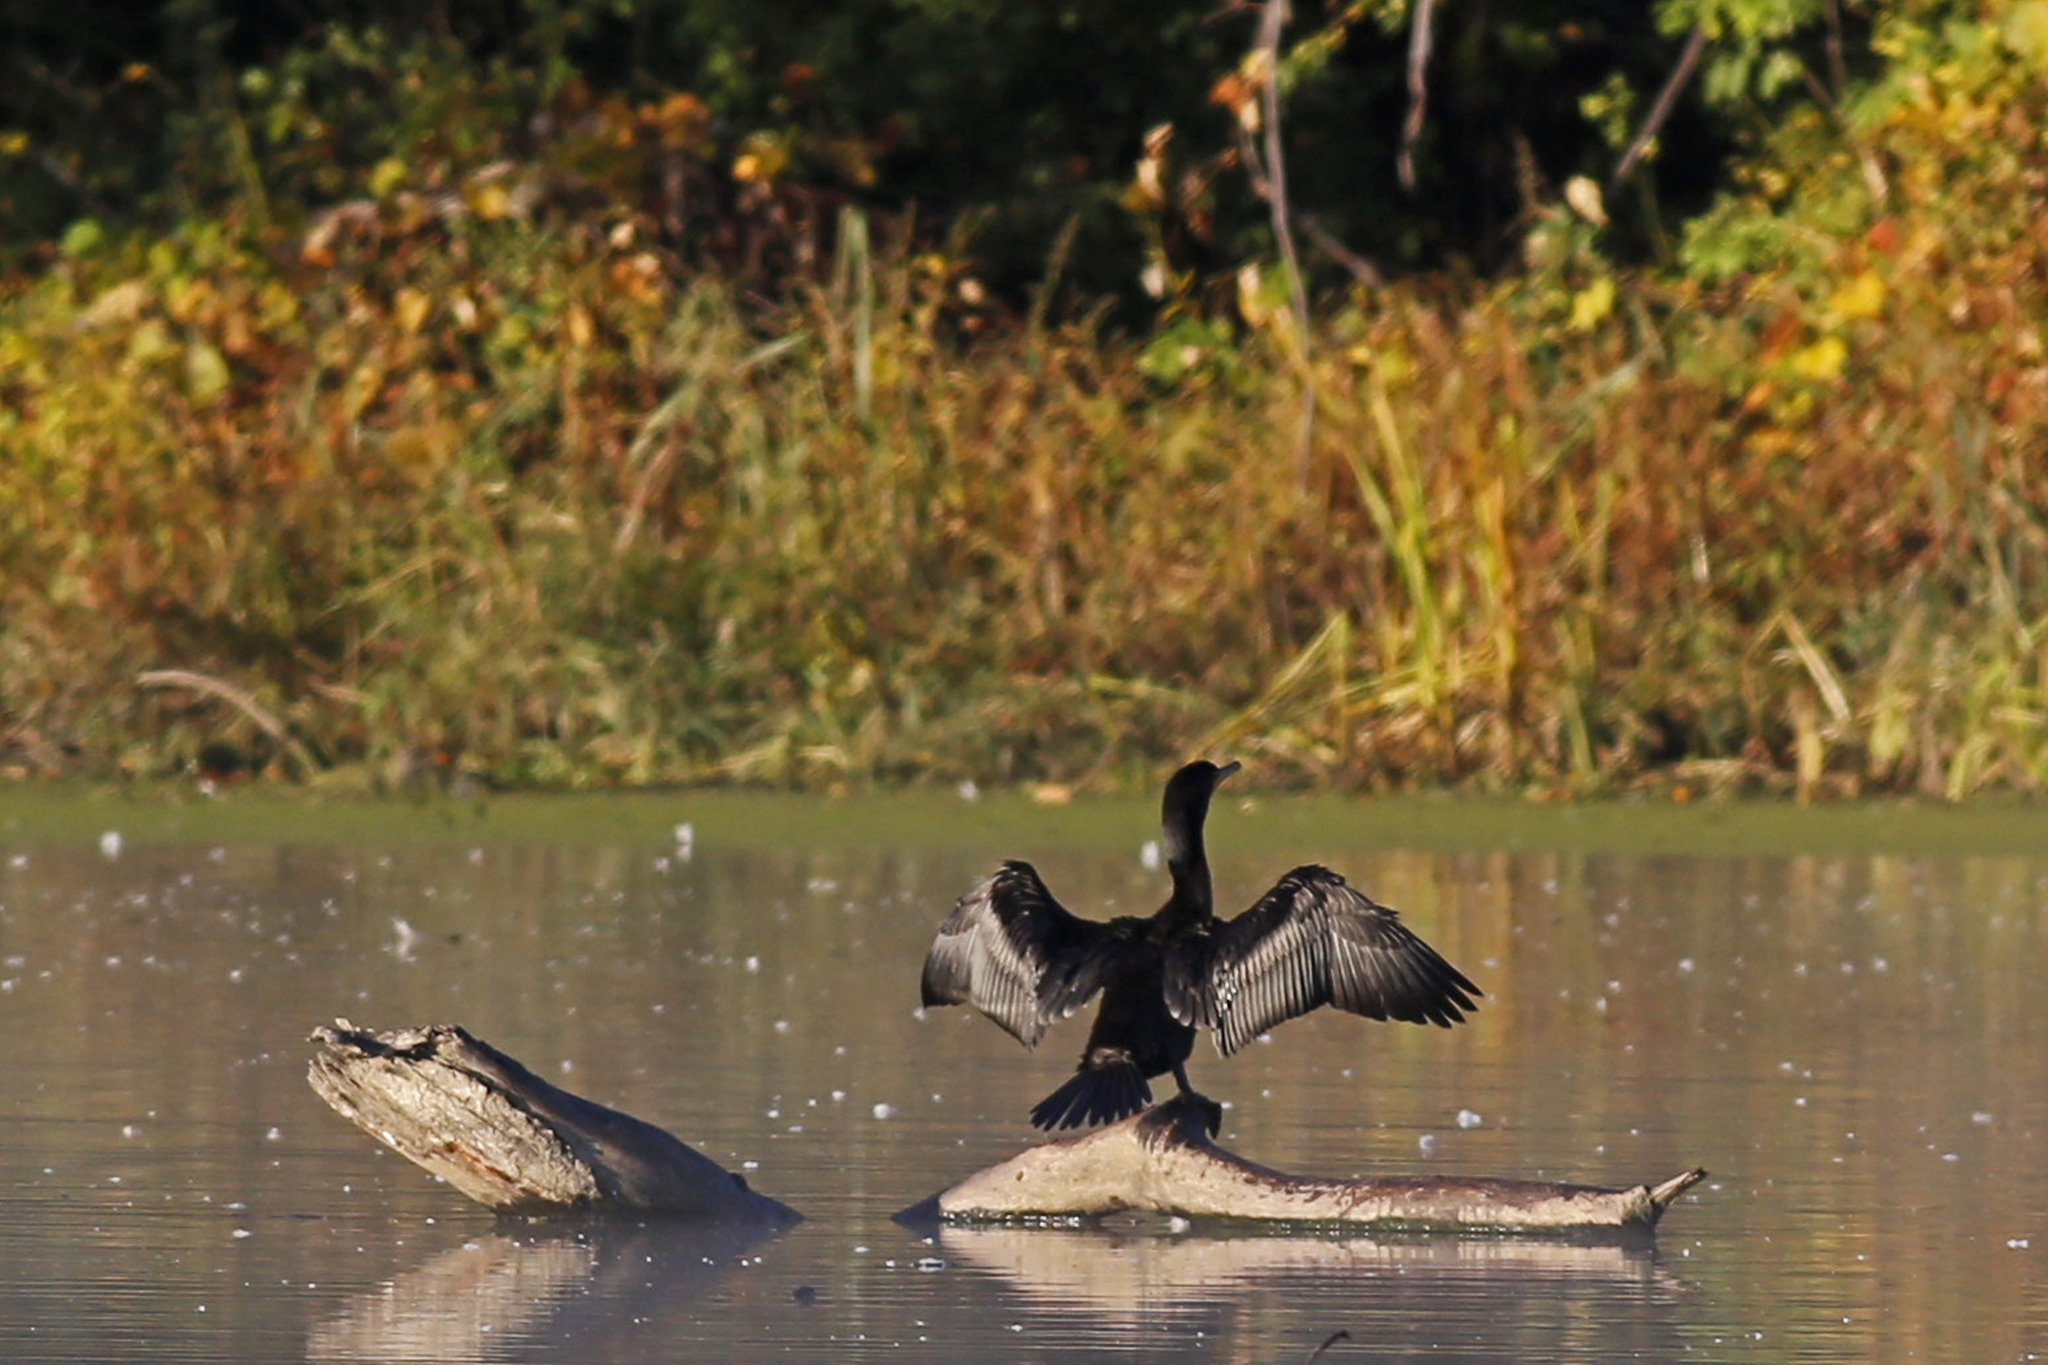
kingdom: Animalia
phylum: Chordata
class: Aves
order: Suliformes
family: Phalacrocoracidae
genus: Phalacrocorax
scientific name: Phalacrocorax auritus
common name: Double-crested cormorant
